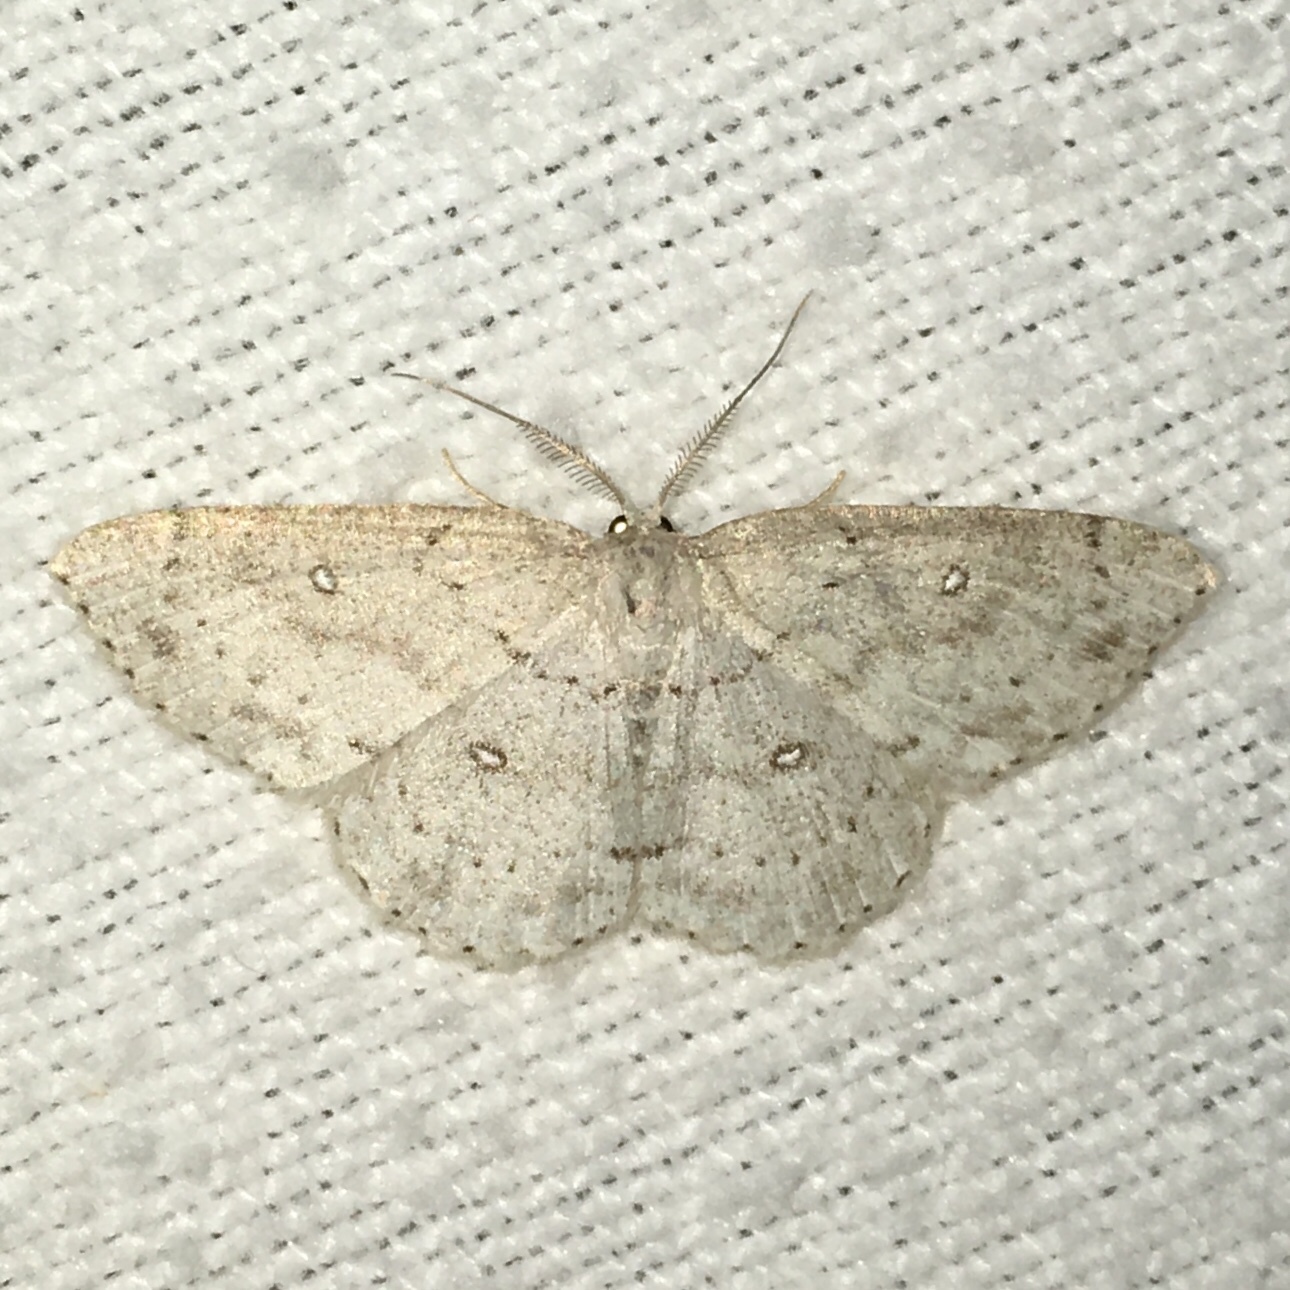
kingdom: Animalia
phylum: Arthropoda
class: Insecta
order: Lepidoptera
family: Geometridae
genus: Cyclophora
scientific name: Cyclophora pendulinaria
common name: Sweet fern geometer
